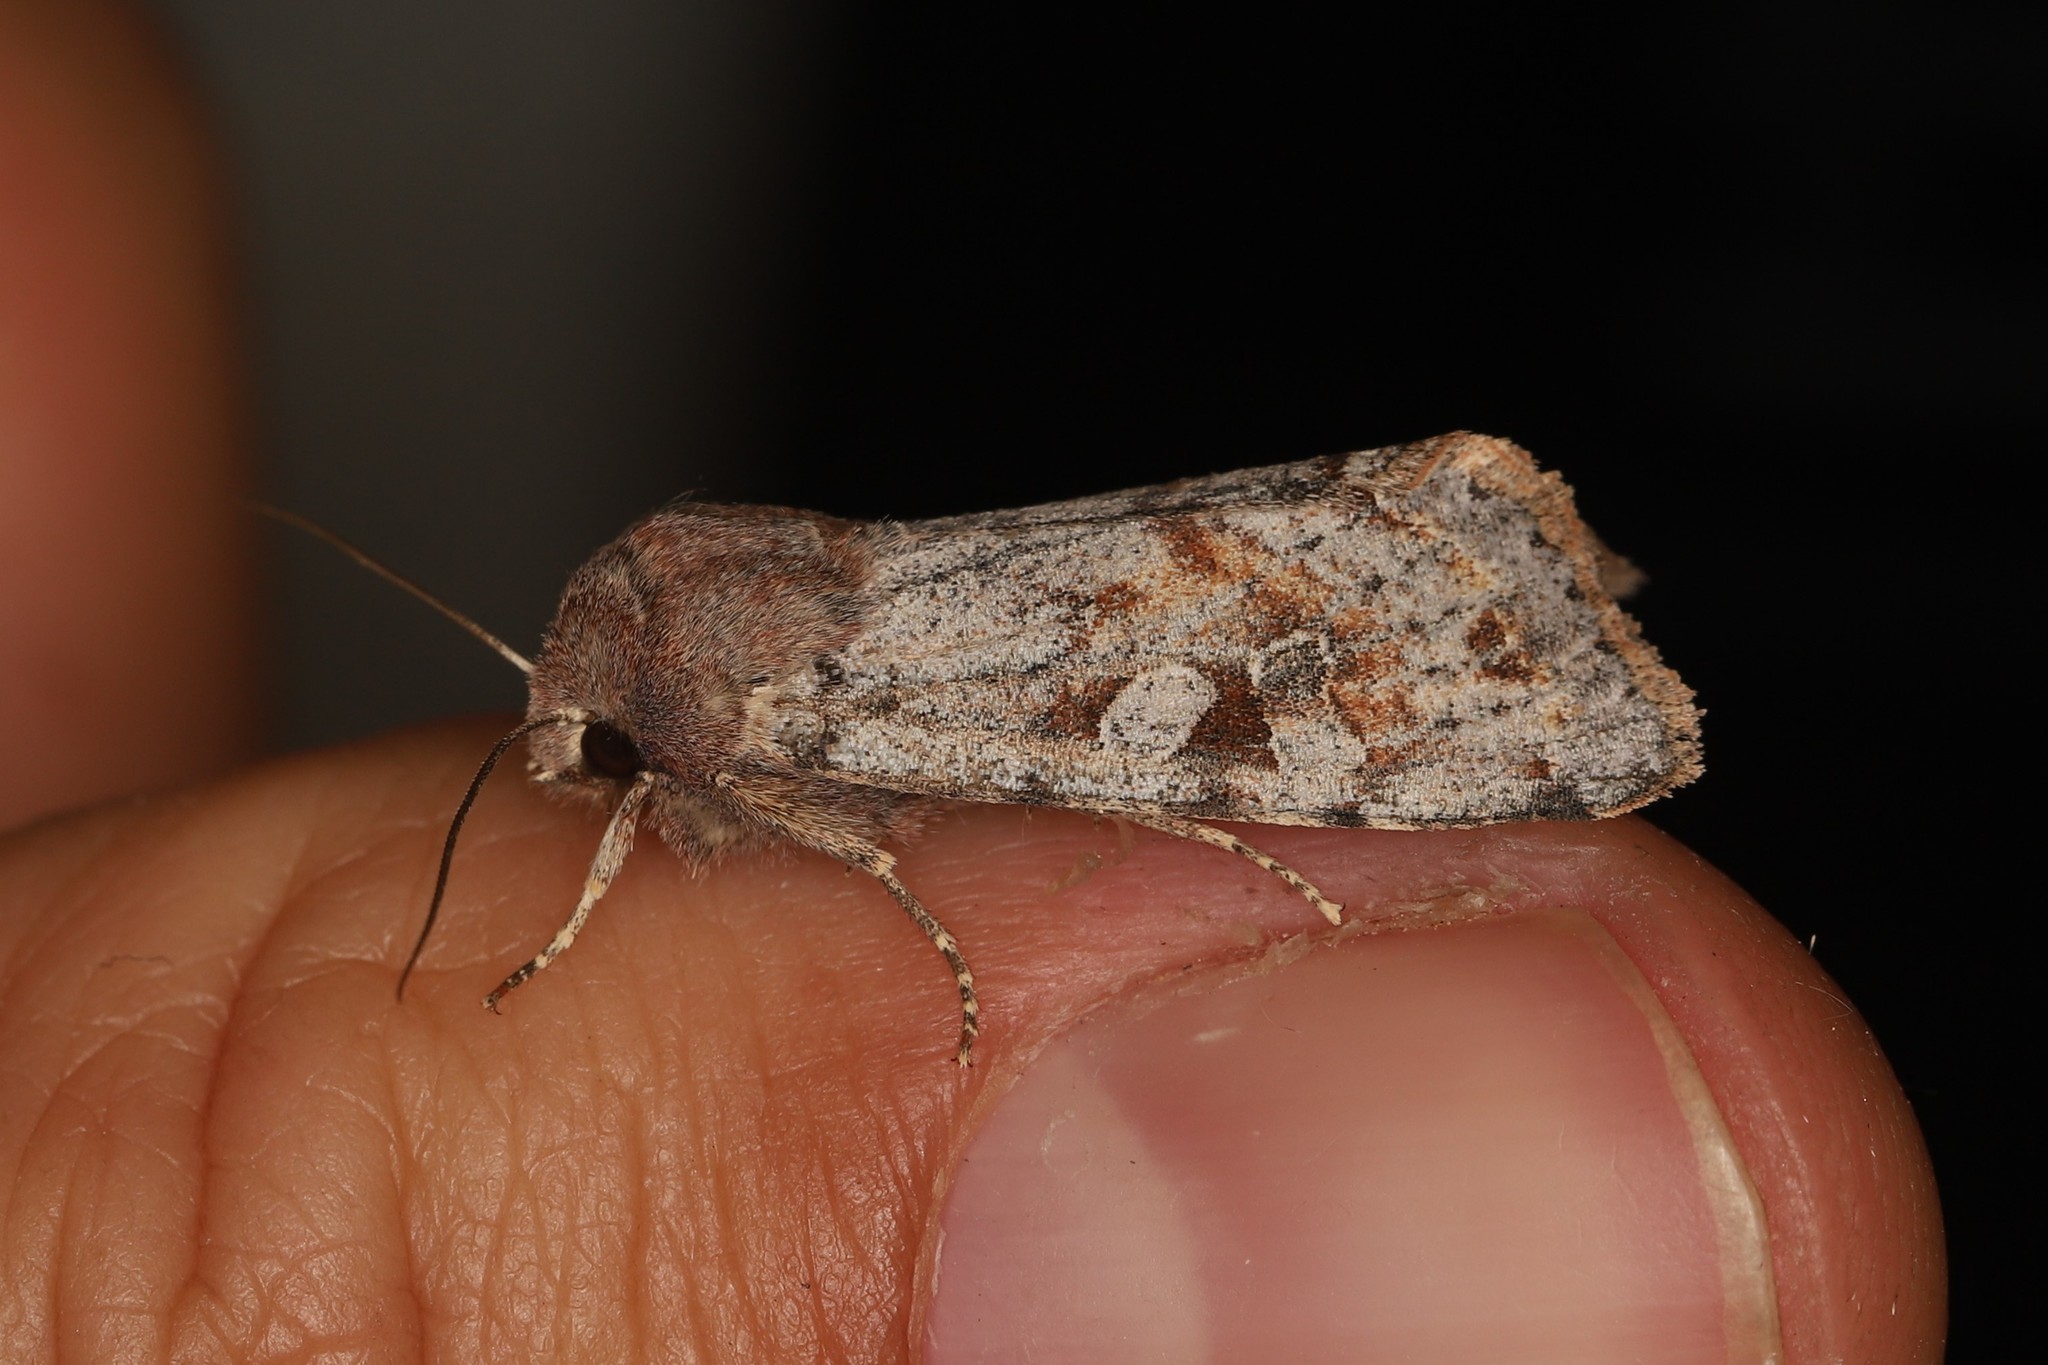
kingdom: Animalia
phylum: Arthropoda
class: Insecta
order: Lepidoptera
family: Noctuidae
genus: Orthosia
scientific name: Orthosia incerta
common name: Clouded drab
